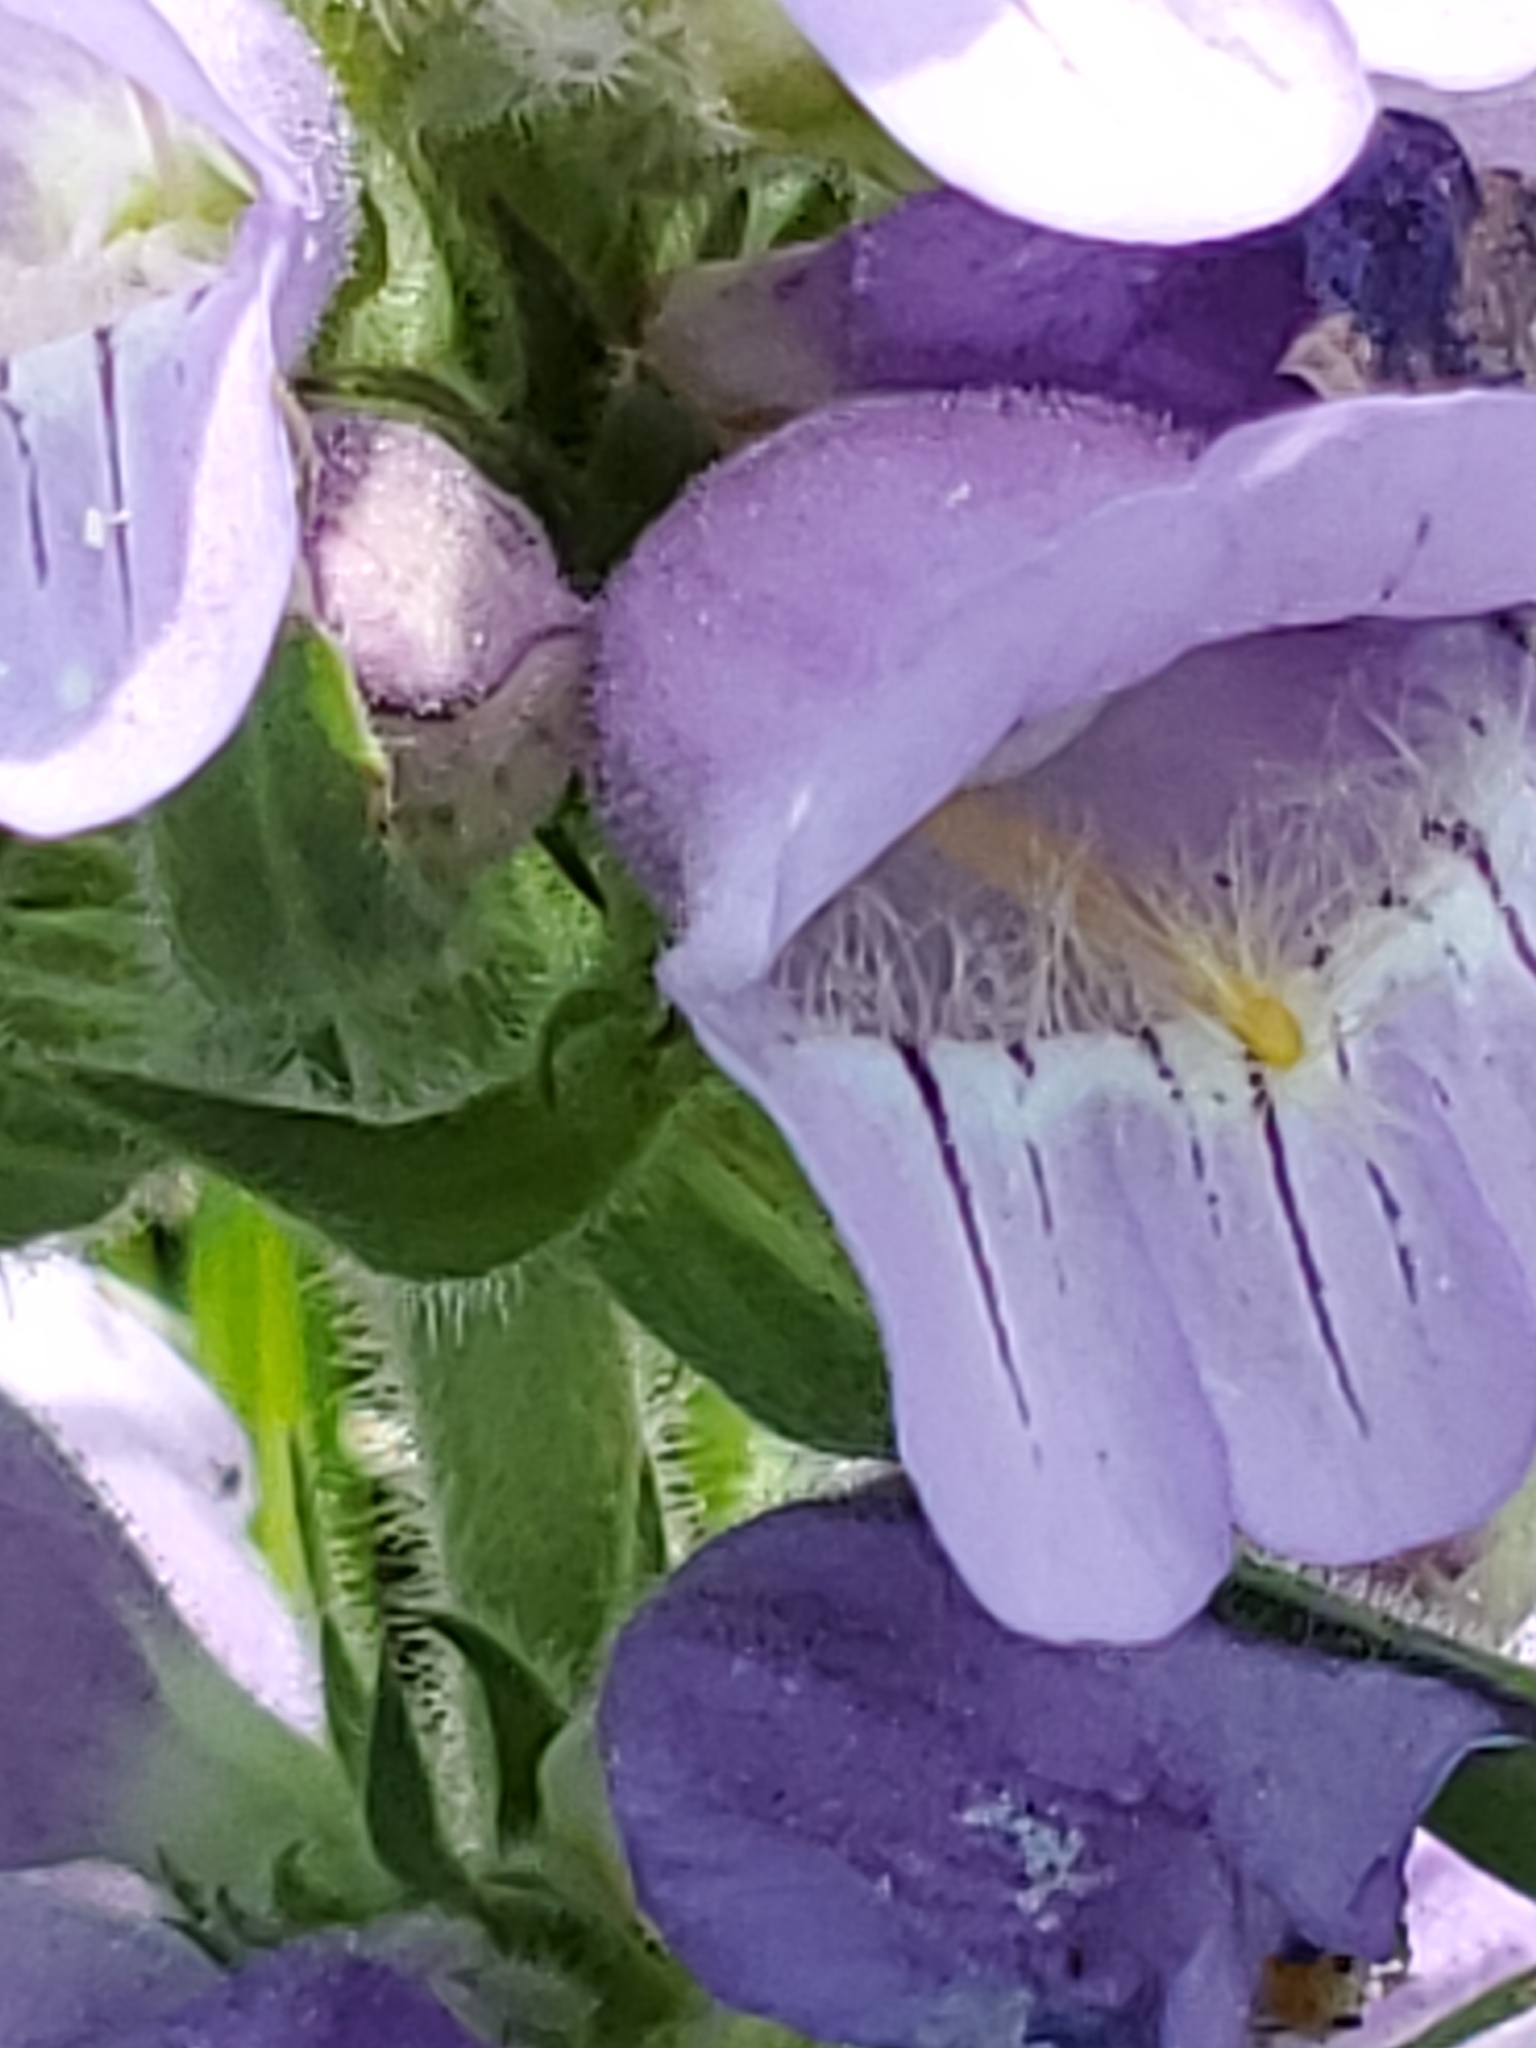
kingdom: Plantae
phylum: Tracheophyta
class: Magnoliopsida
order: Lamiales
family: Plantaginaceae
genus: Penstemon
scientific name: Penstemon eriantherus
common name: Crested beardtongue
